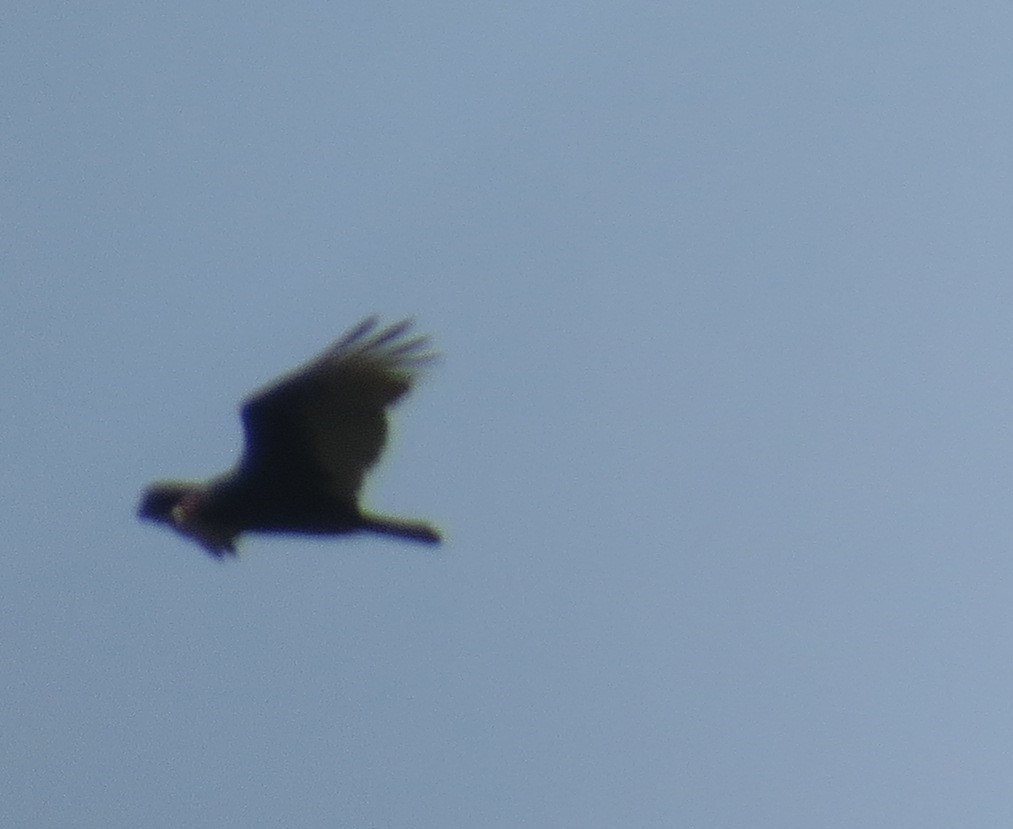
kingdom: Animalia
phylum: Chordata
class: Aves
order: Accipitriformes
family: Cathartidae
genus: Cathartes
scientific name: Cathartes aura
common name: Turkey vulture
